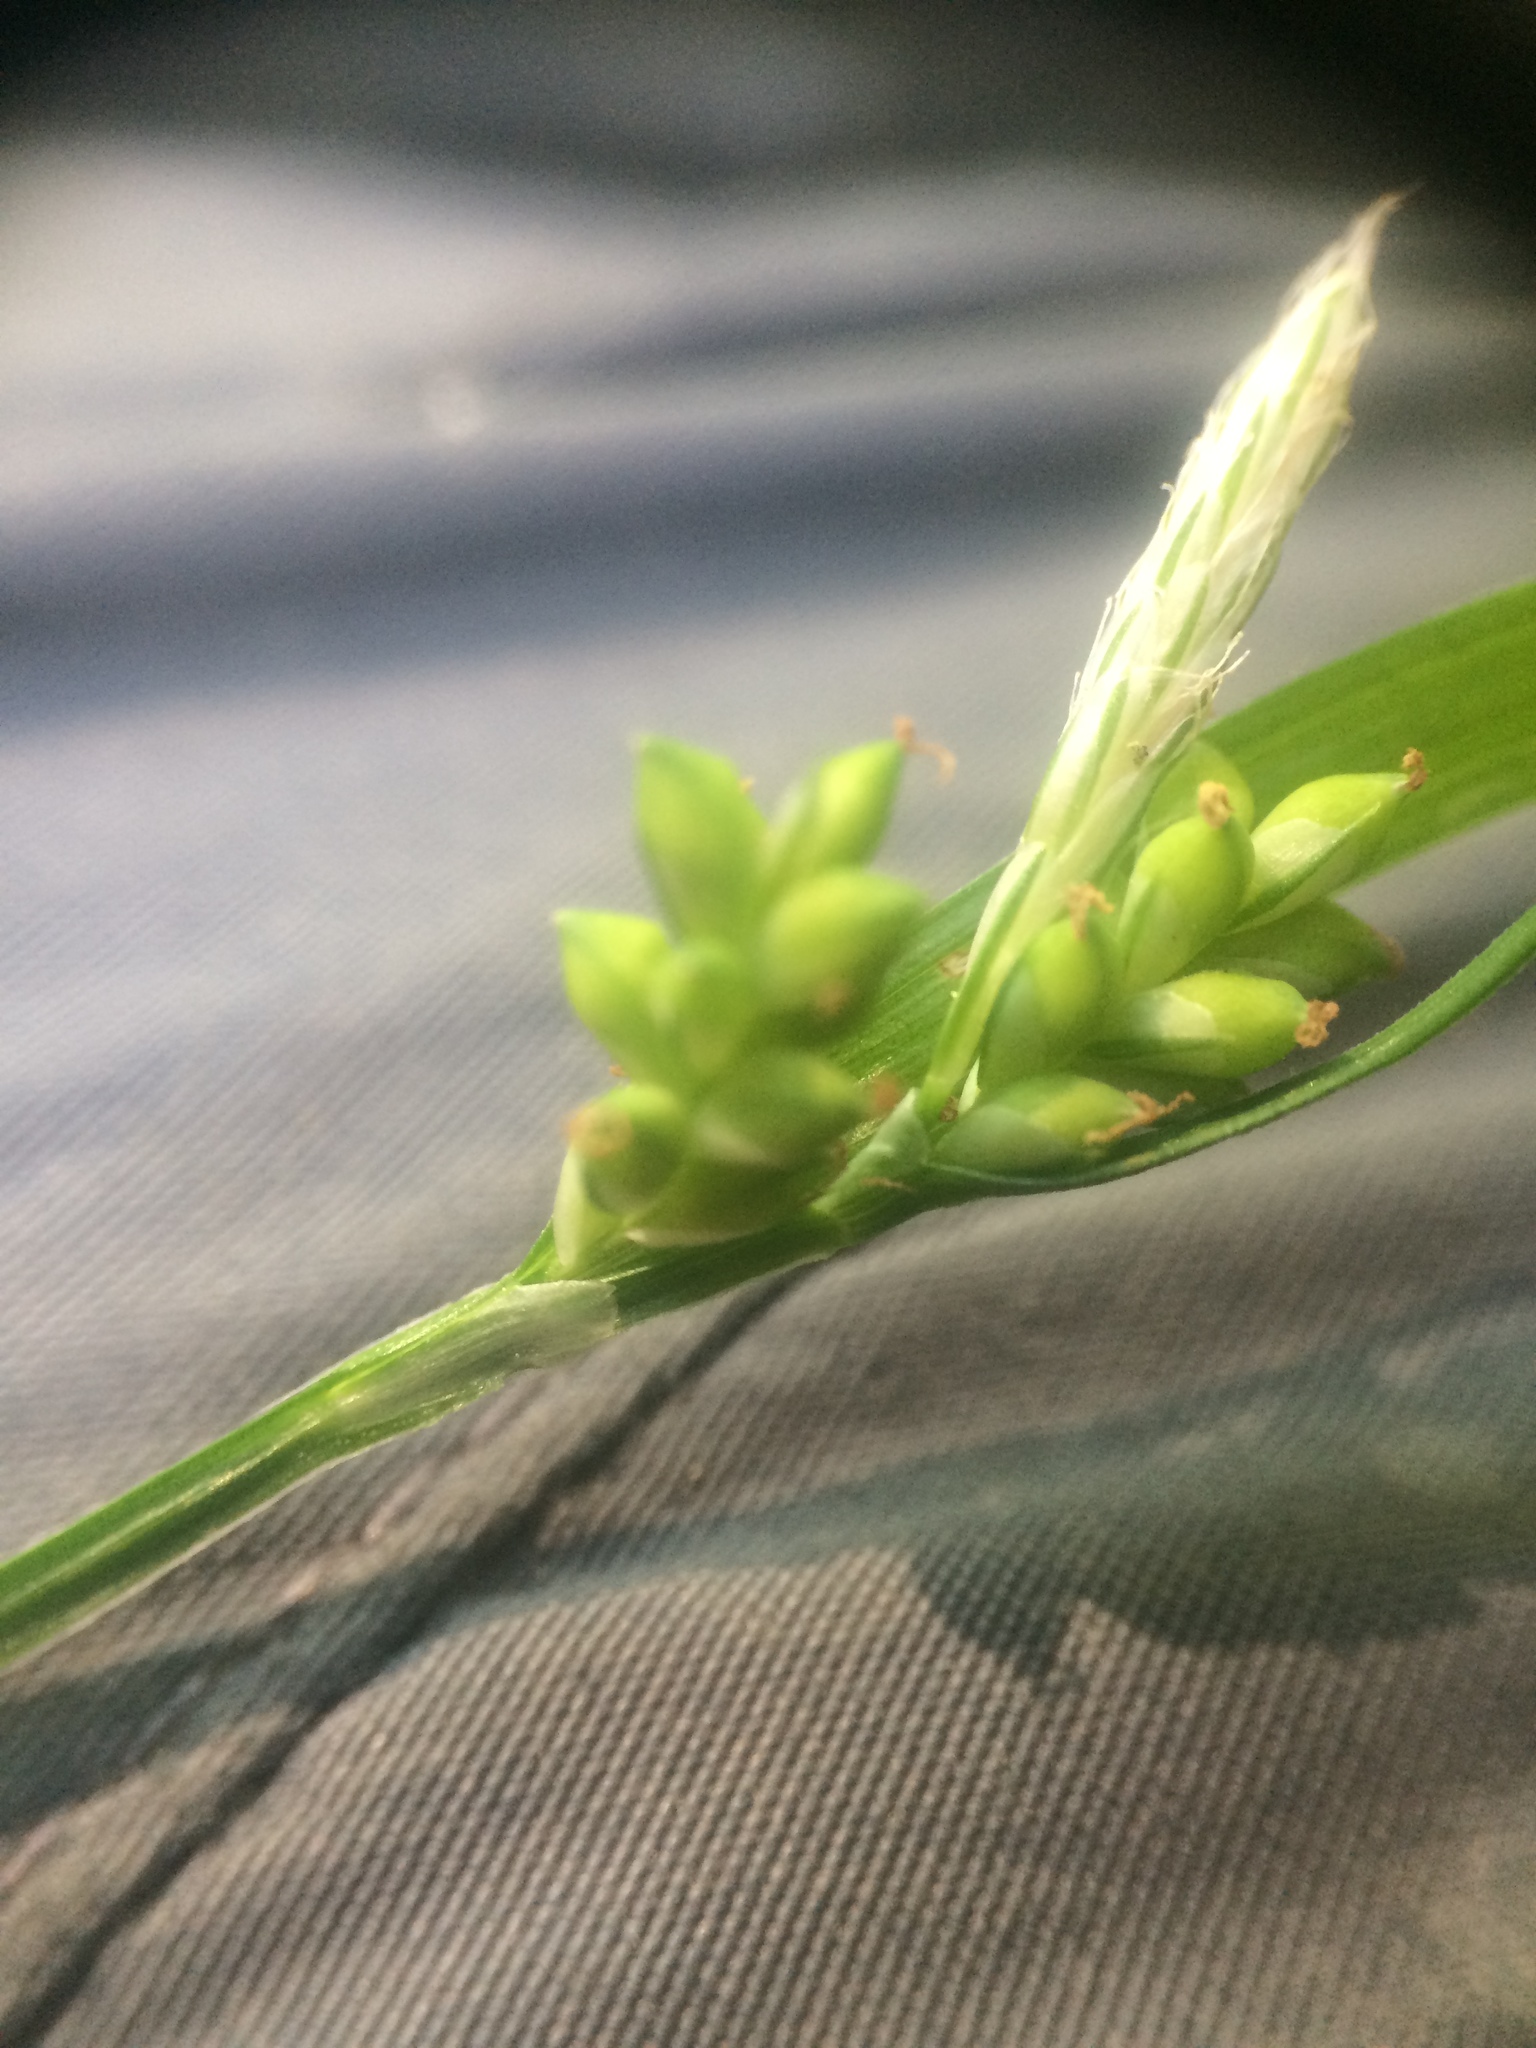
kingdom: Plantae
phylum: Tracheophyta
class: Liliopsida
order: Poales
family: Cyperaceae
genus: Carex
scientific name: Carex blanda
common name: Bland sedge
